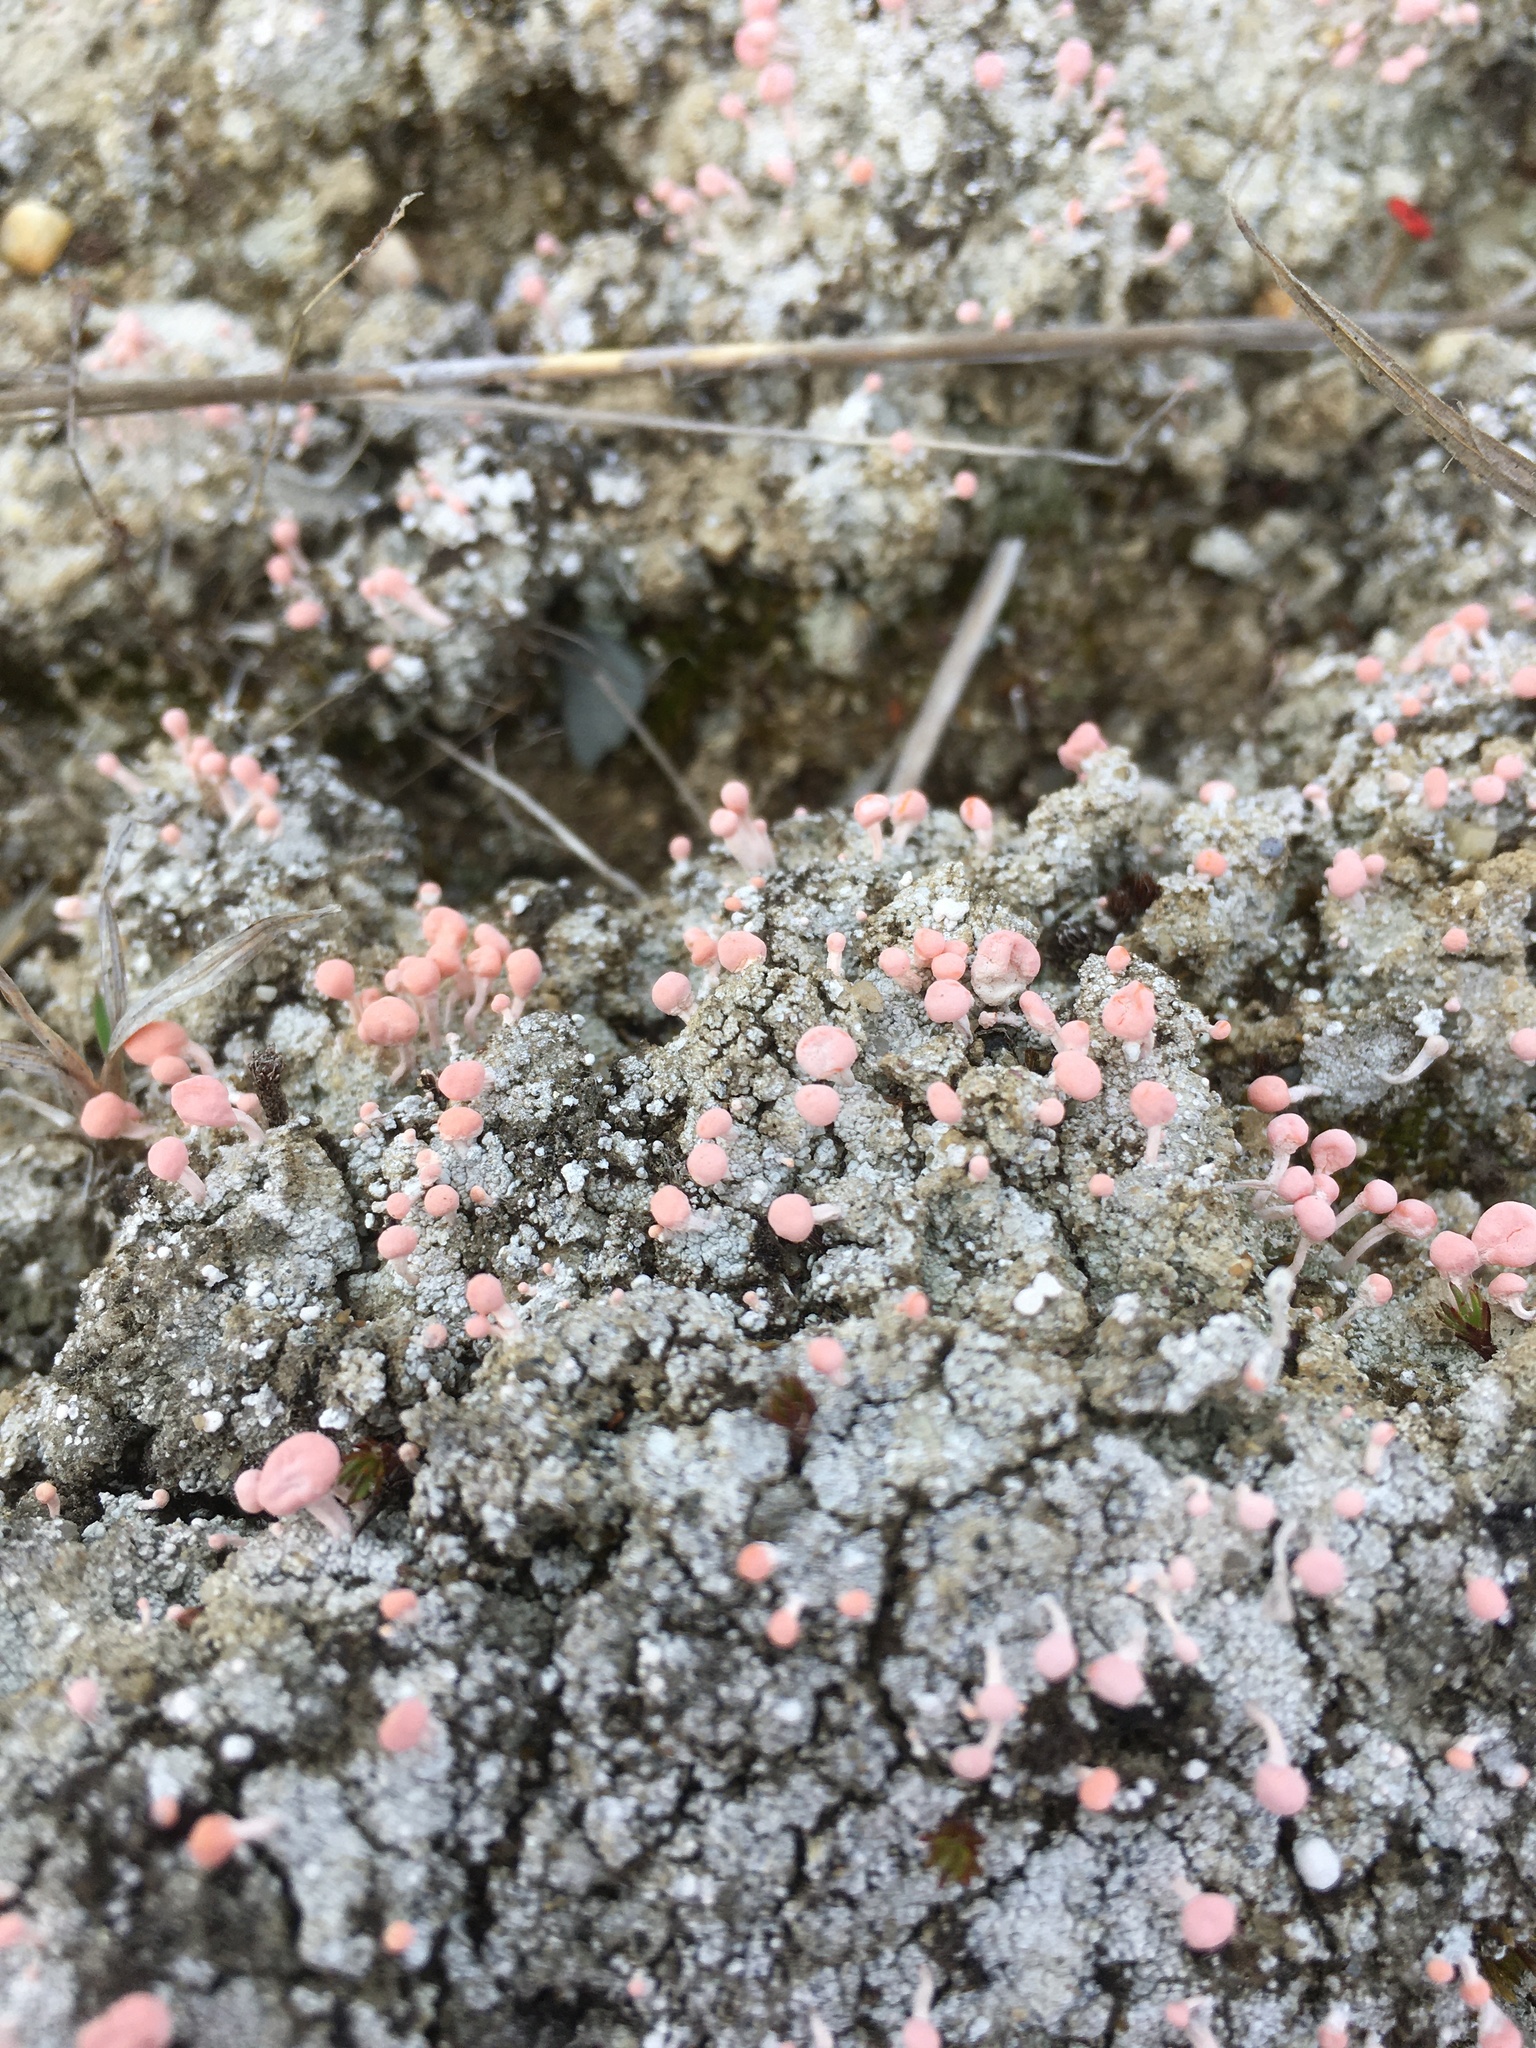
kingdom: Fungi
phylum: Ascomycota
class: Lecanoromycetes
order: Pertusariales
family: Icmadophilaceae
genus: Dibaeis
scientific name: Dibaeis baeomyces
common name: Pink earth lichen
